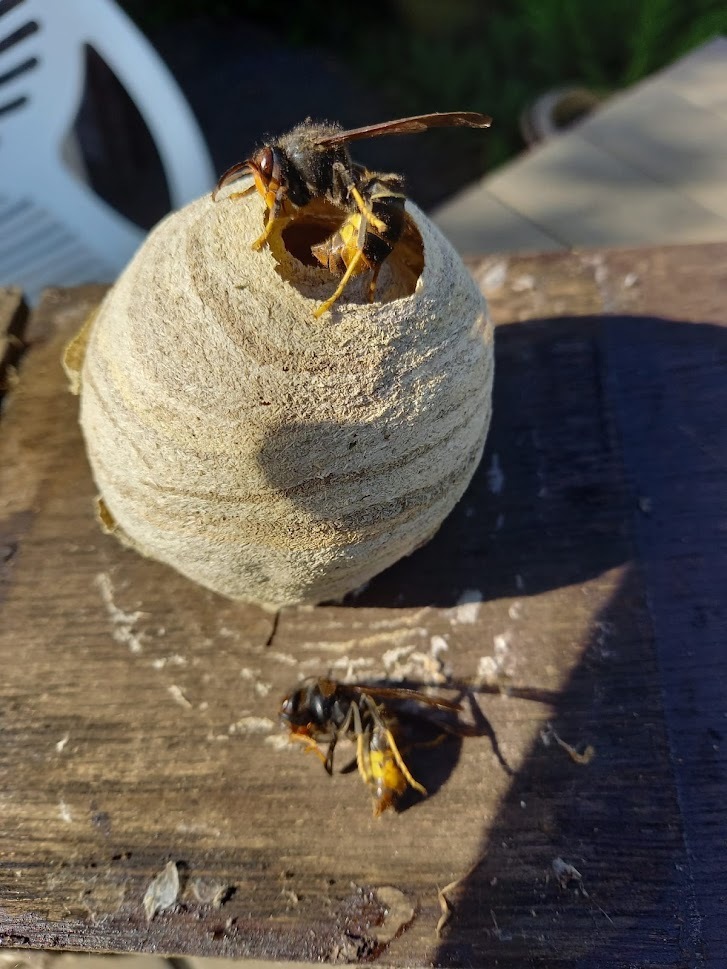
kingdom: Animalia
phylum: Arthropoda
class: Insecta
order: Hymenoptera
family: Vespidae
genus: Vespa
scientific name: Vespa velutina
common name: Asian hornet
